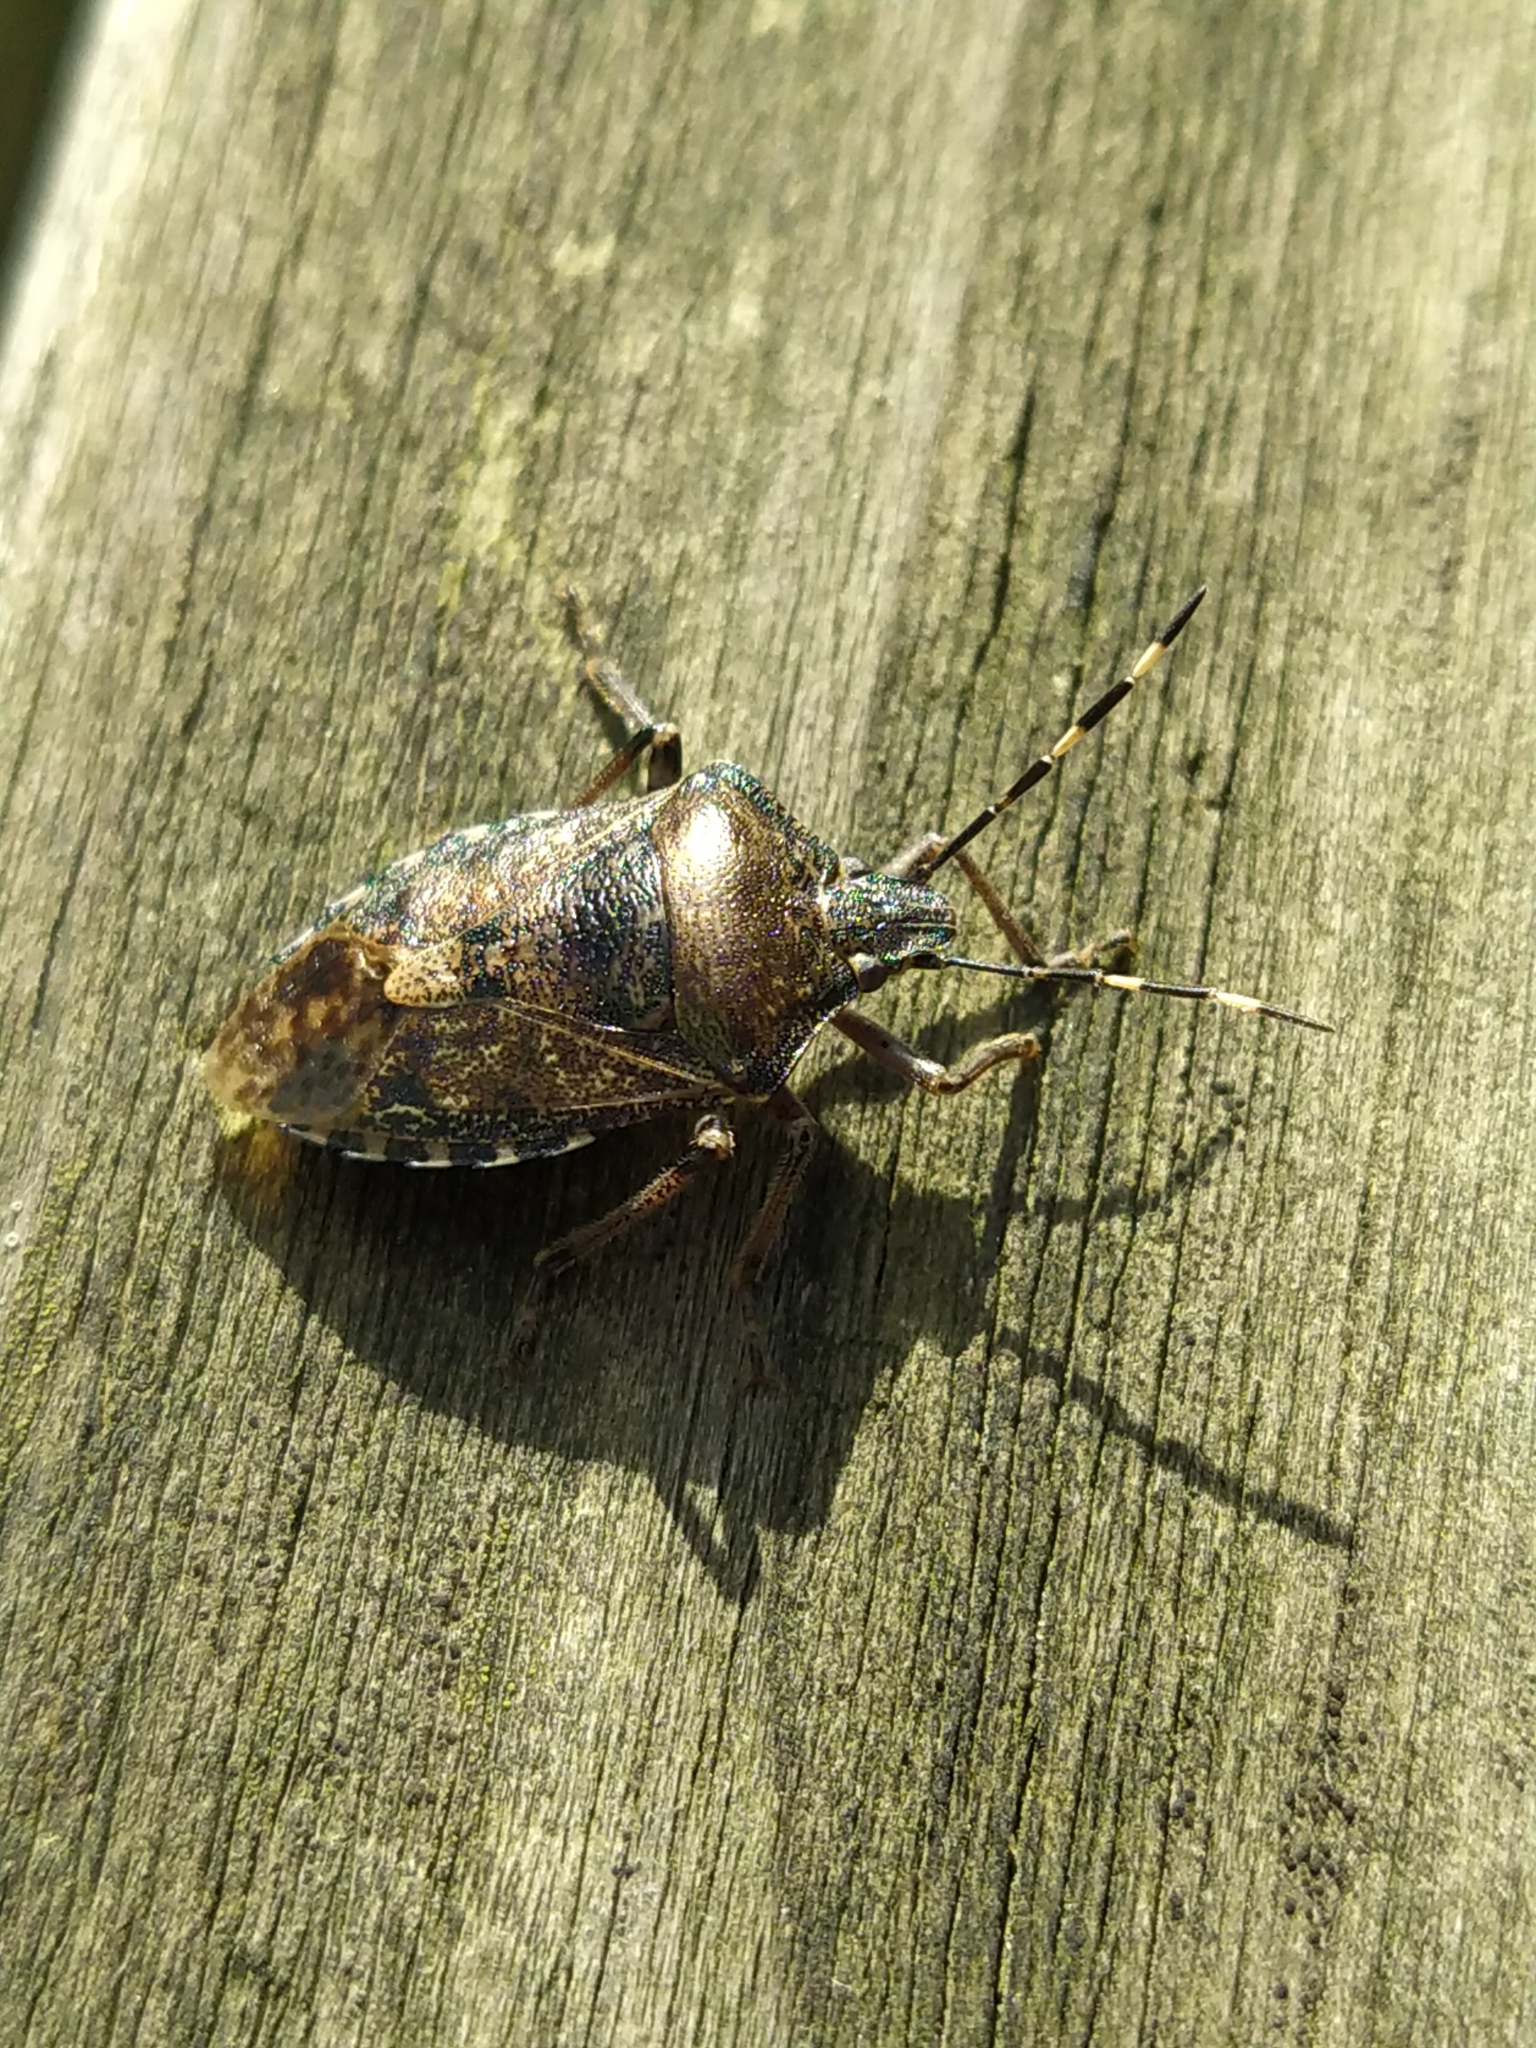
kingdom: Animalia
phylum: Arthropoda
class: Insecta
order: Hemiptera
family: Pentatomidae
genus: Rhaphigaster
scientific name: Rhaphigaster nebulosa
